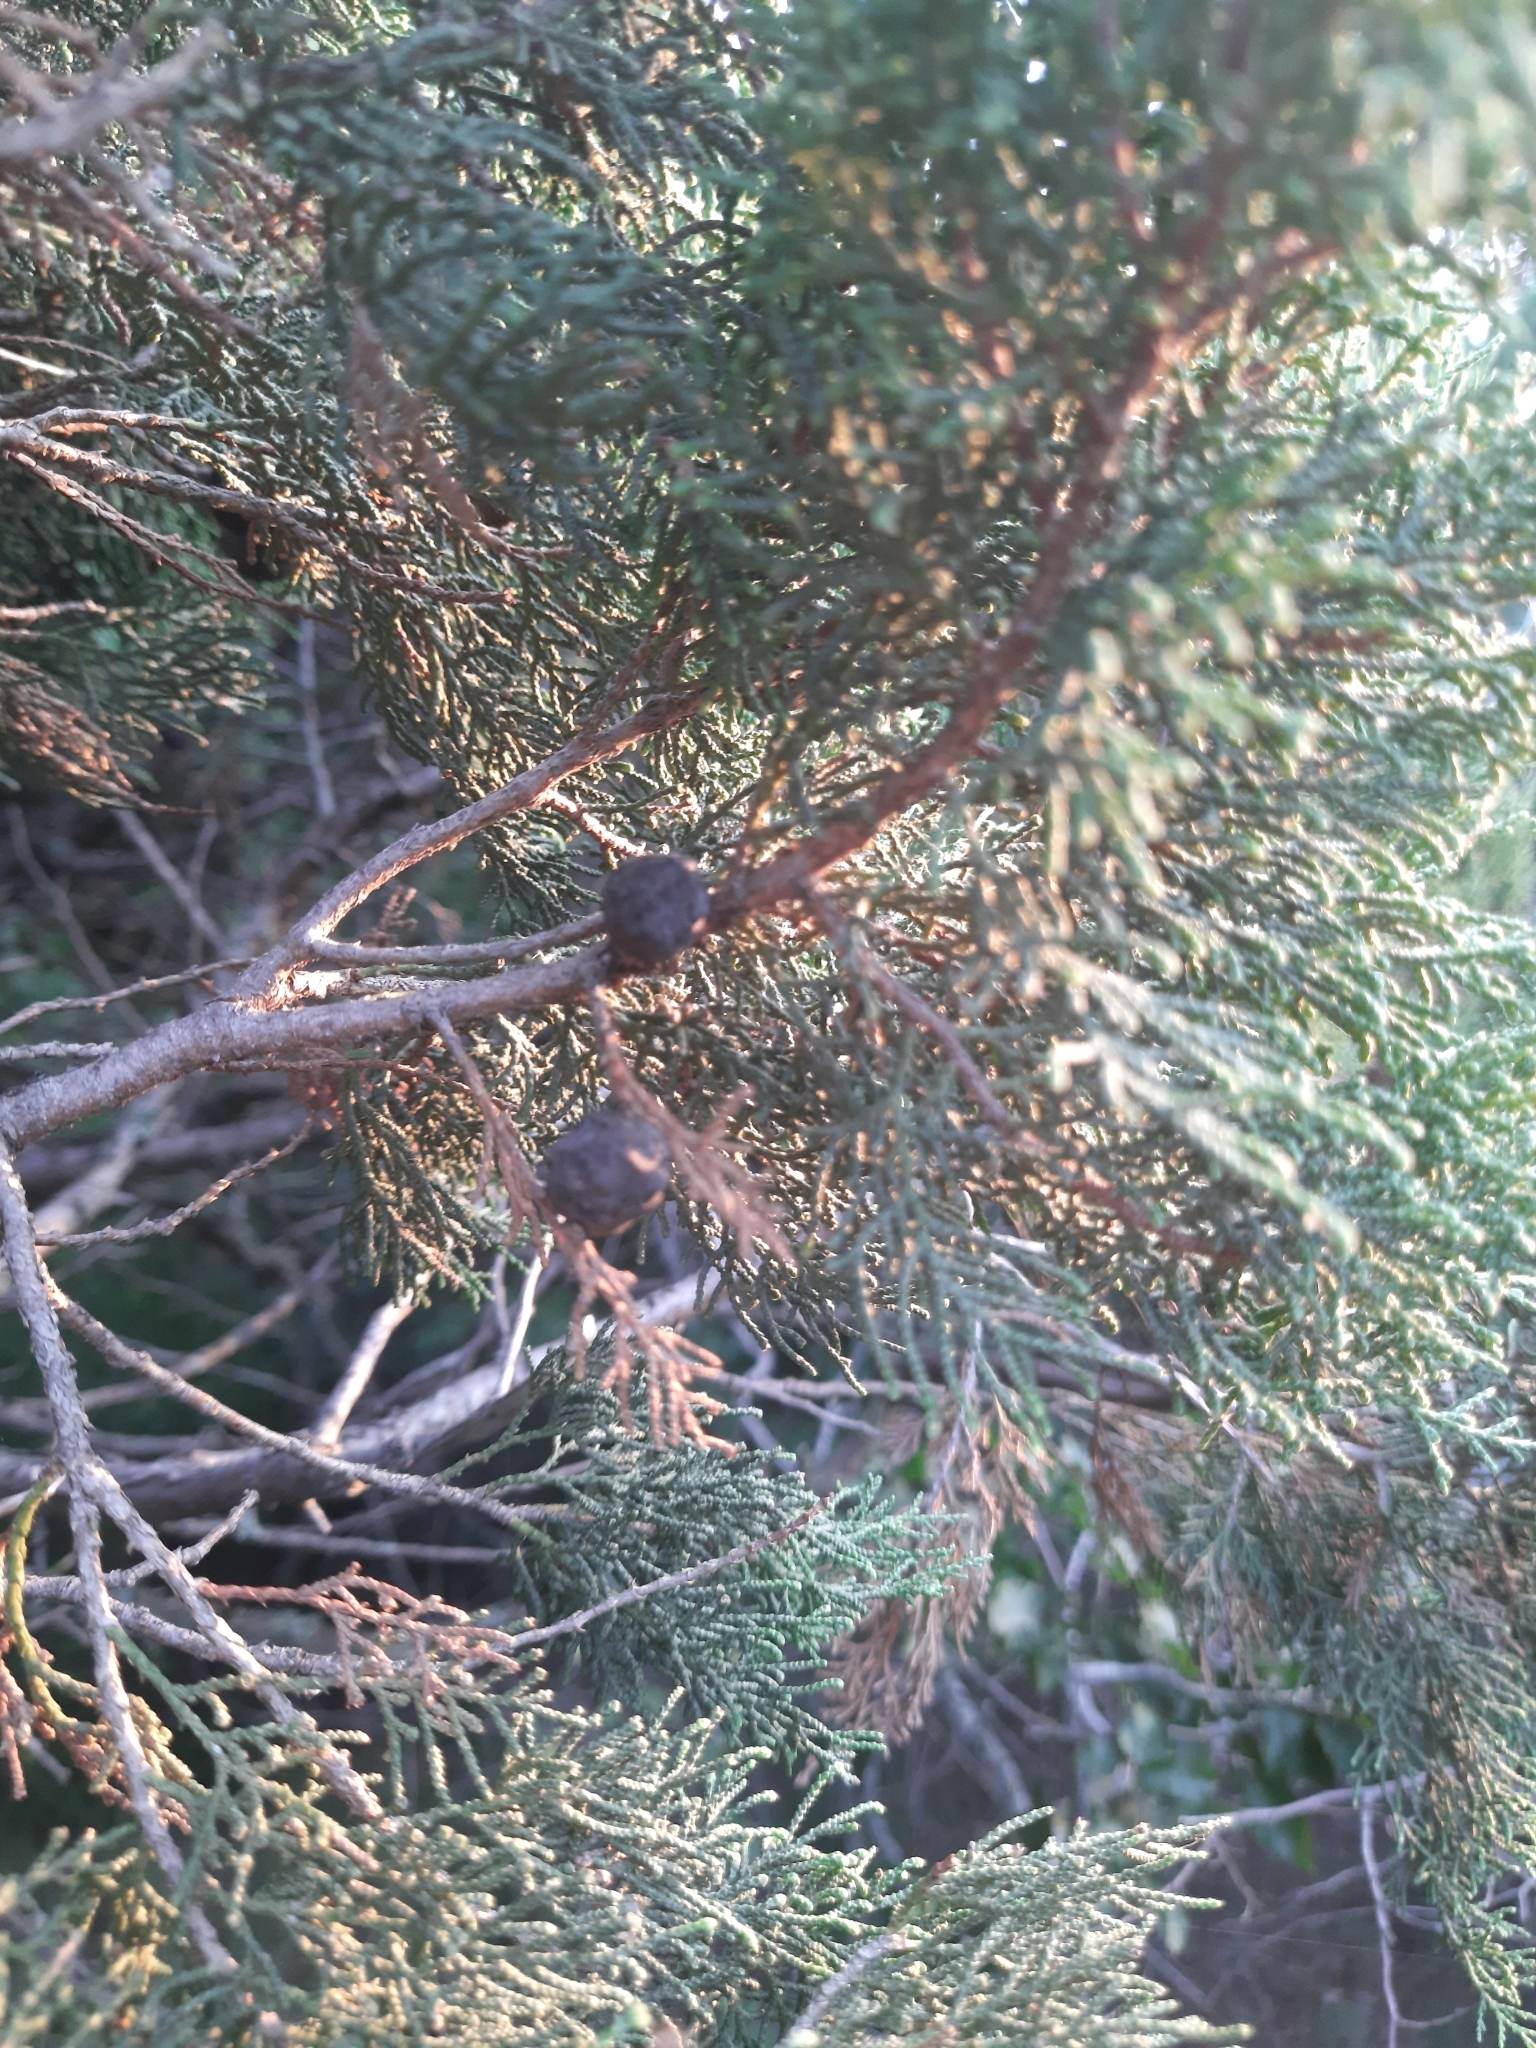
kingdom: Plantae
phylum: Tracheophyta
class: Pinopsida
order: Pinales
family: Cupressaceae
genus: Juniperus
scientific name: Juniperus excelsa
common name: Crimean juniper
